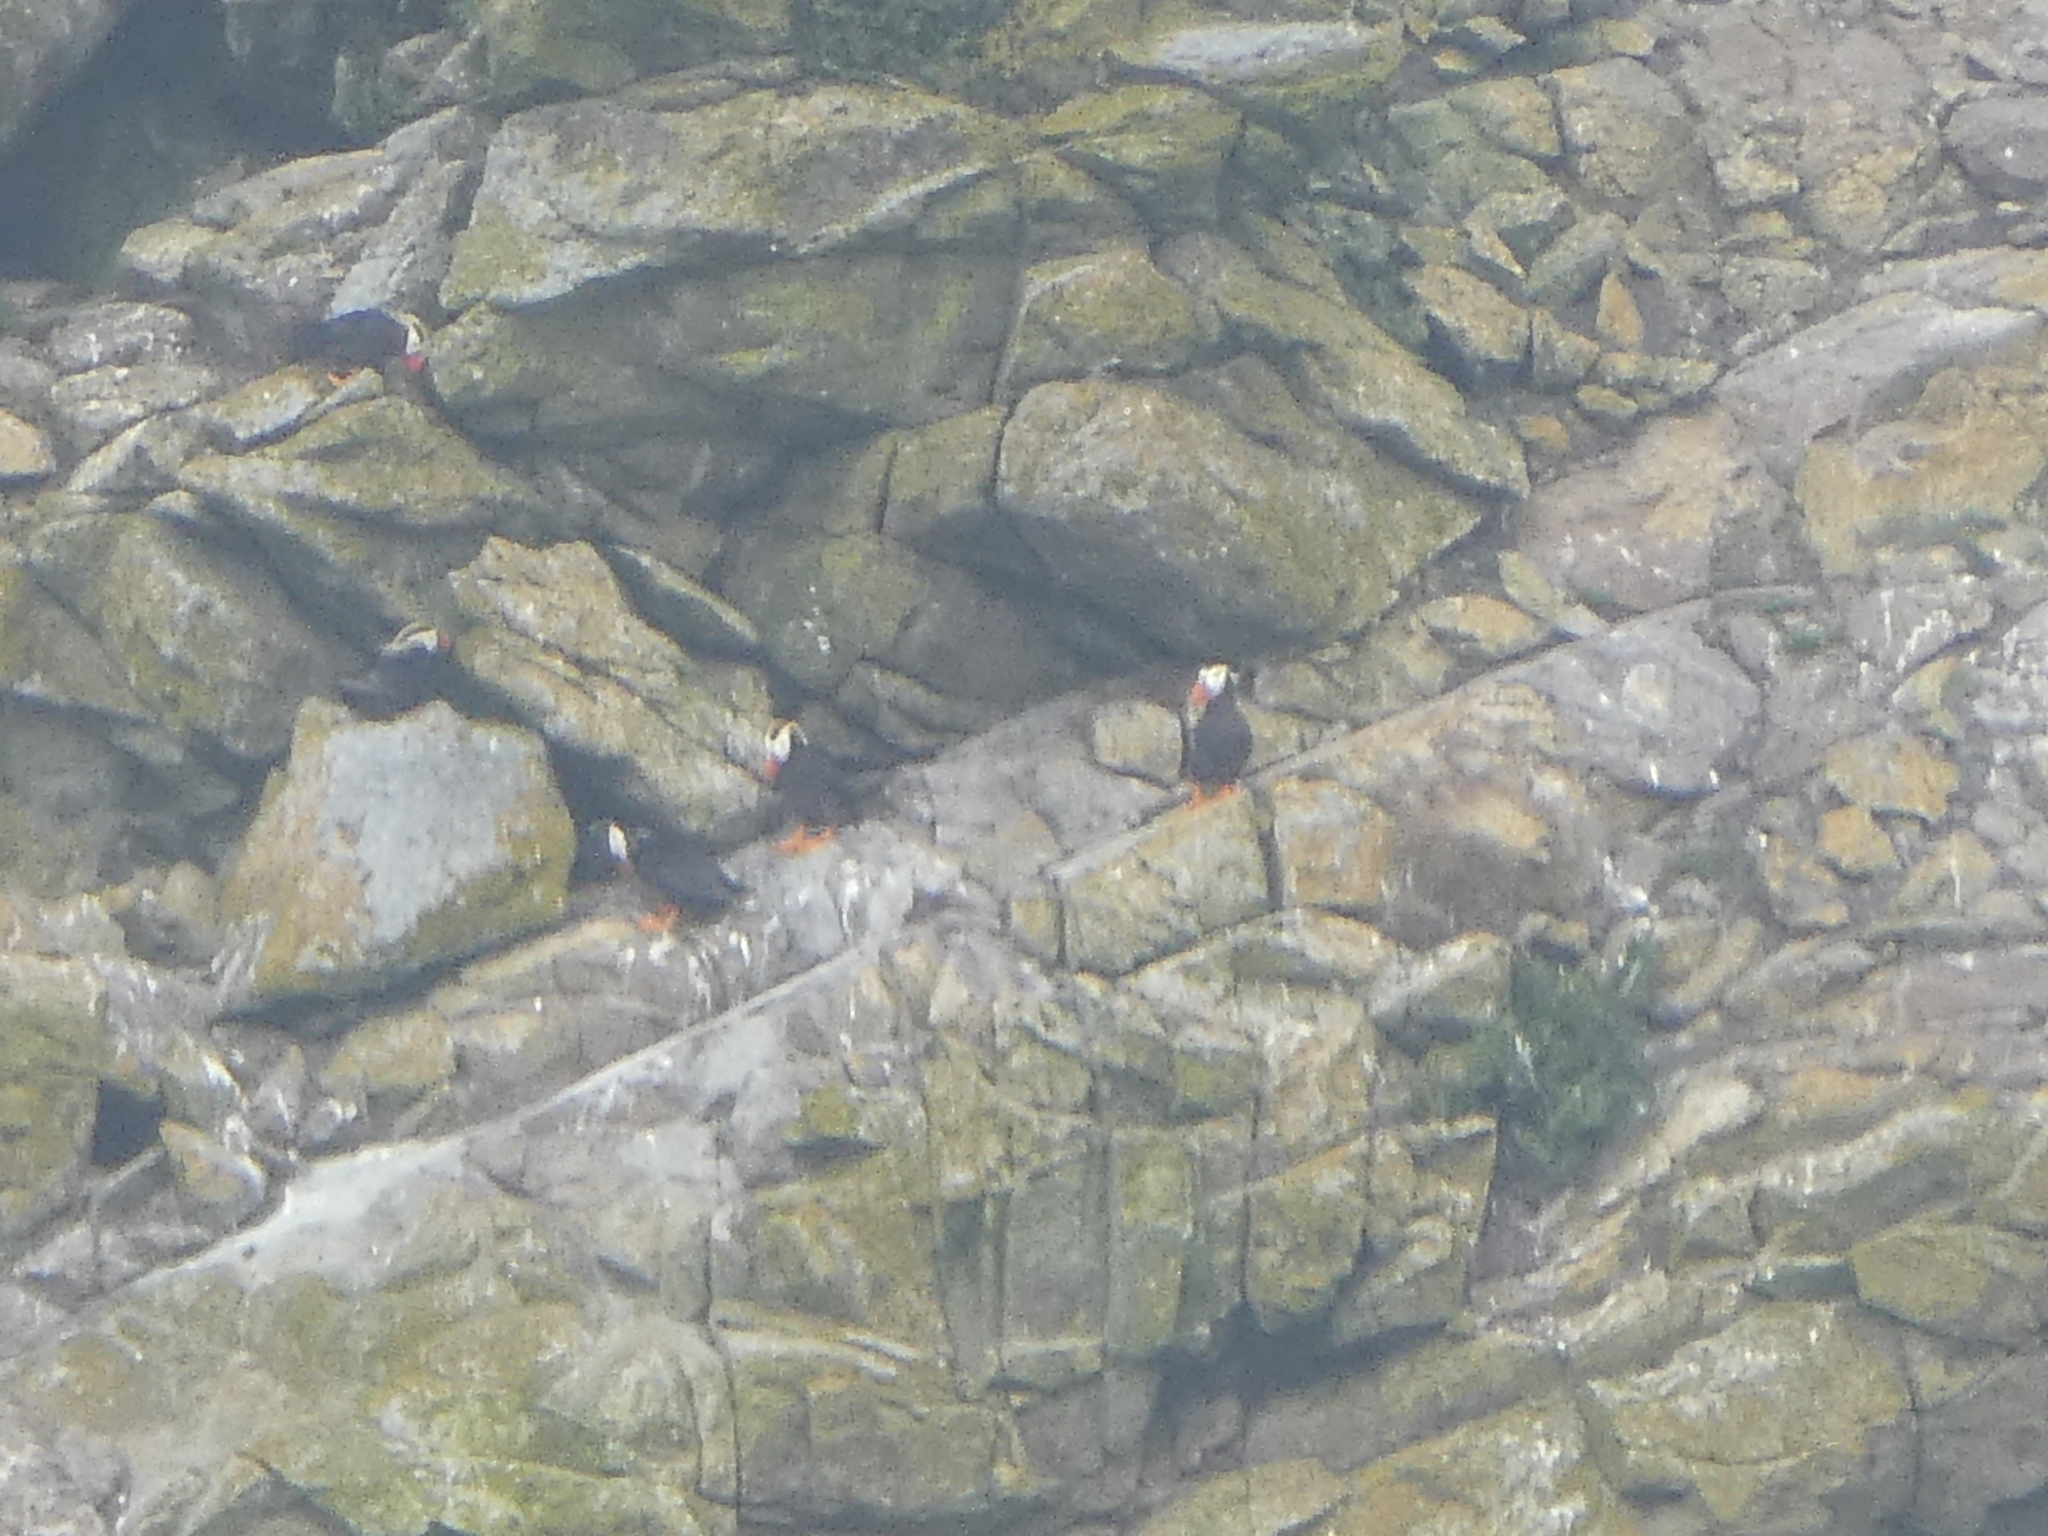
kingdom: Animalia
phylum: Chordata
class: Aves
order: Charadriiformes
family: Alcidae
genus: Fratercula
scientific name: Fratercula cirrhata
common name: Tufted puffin
